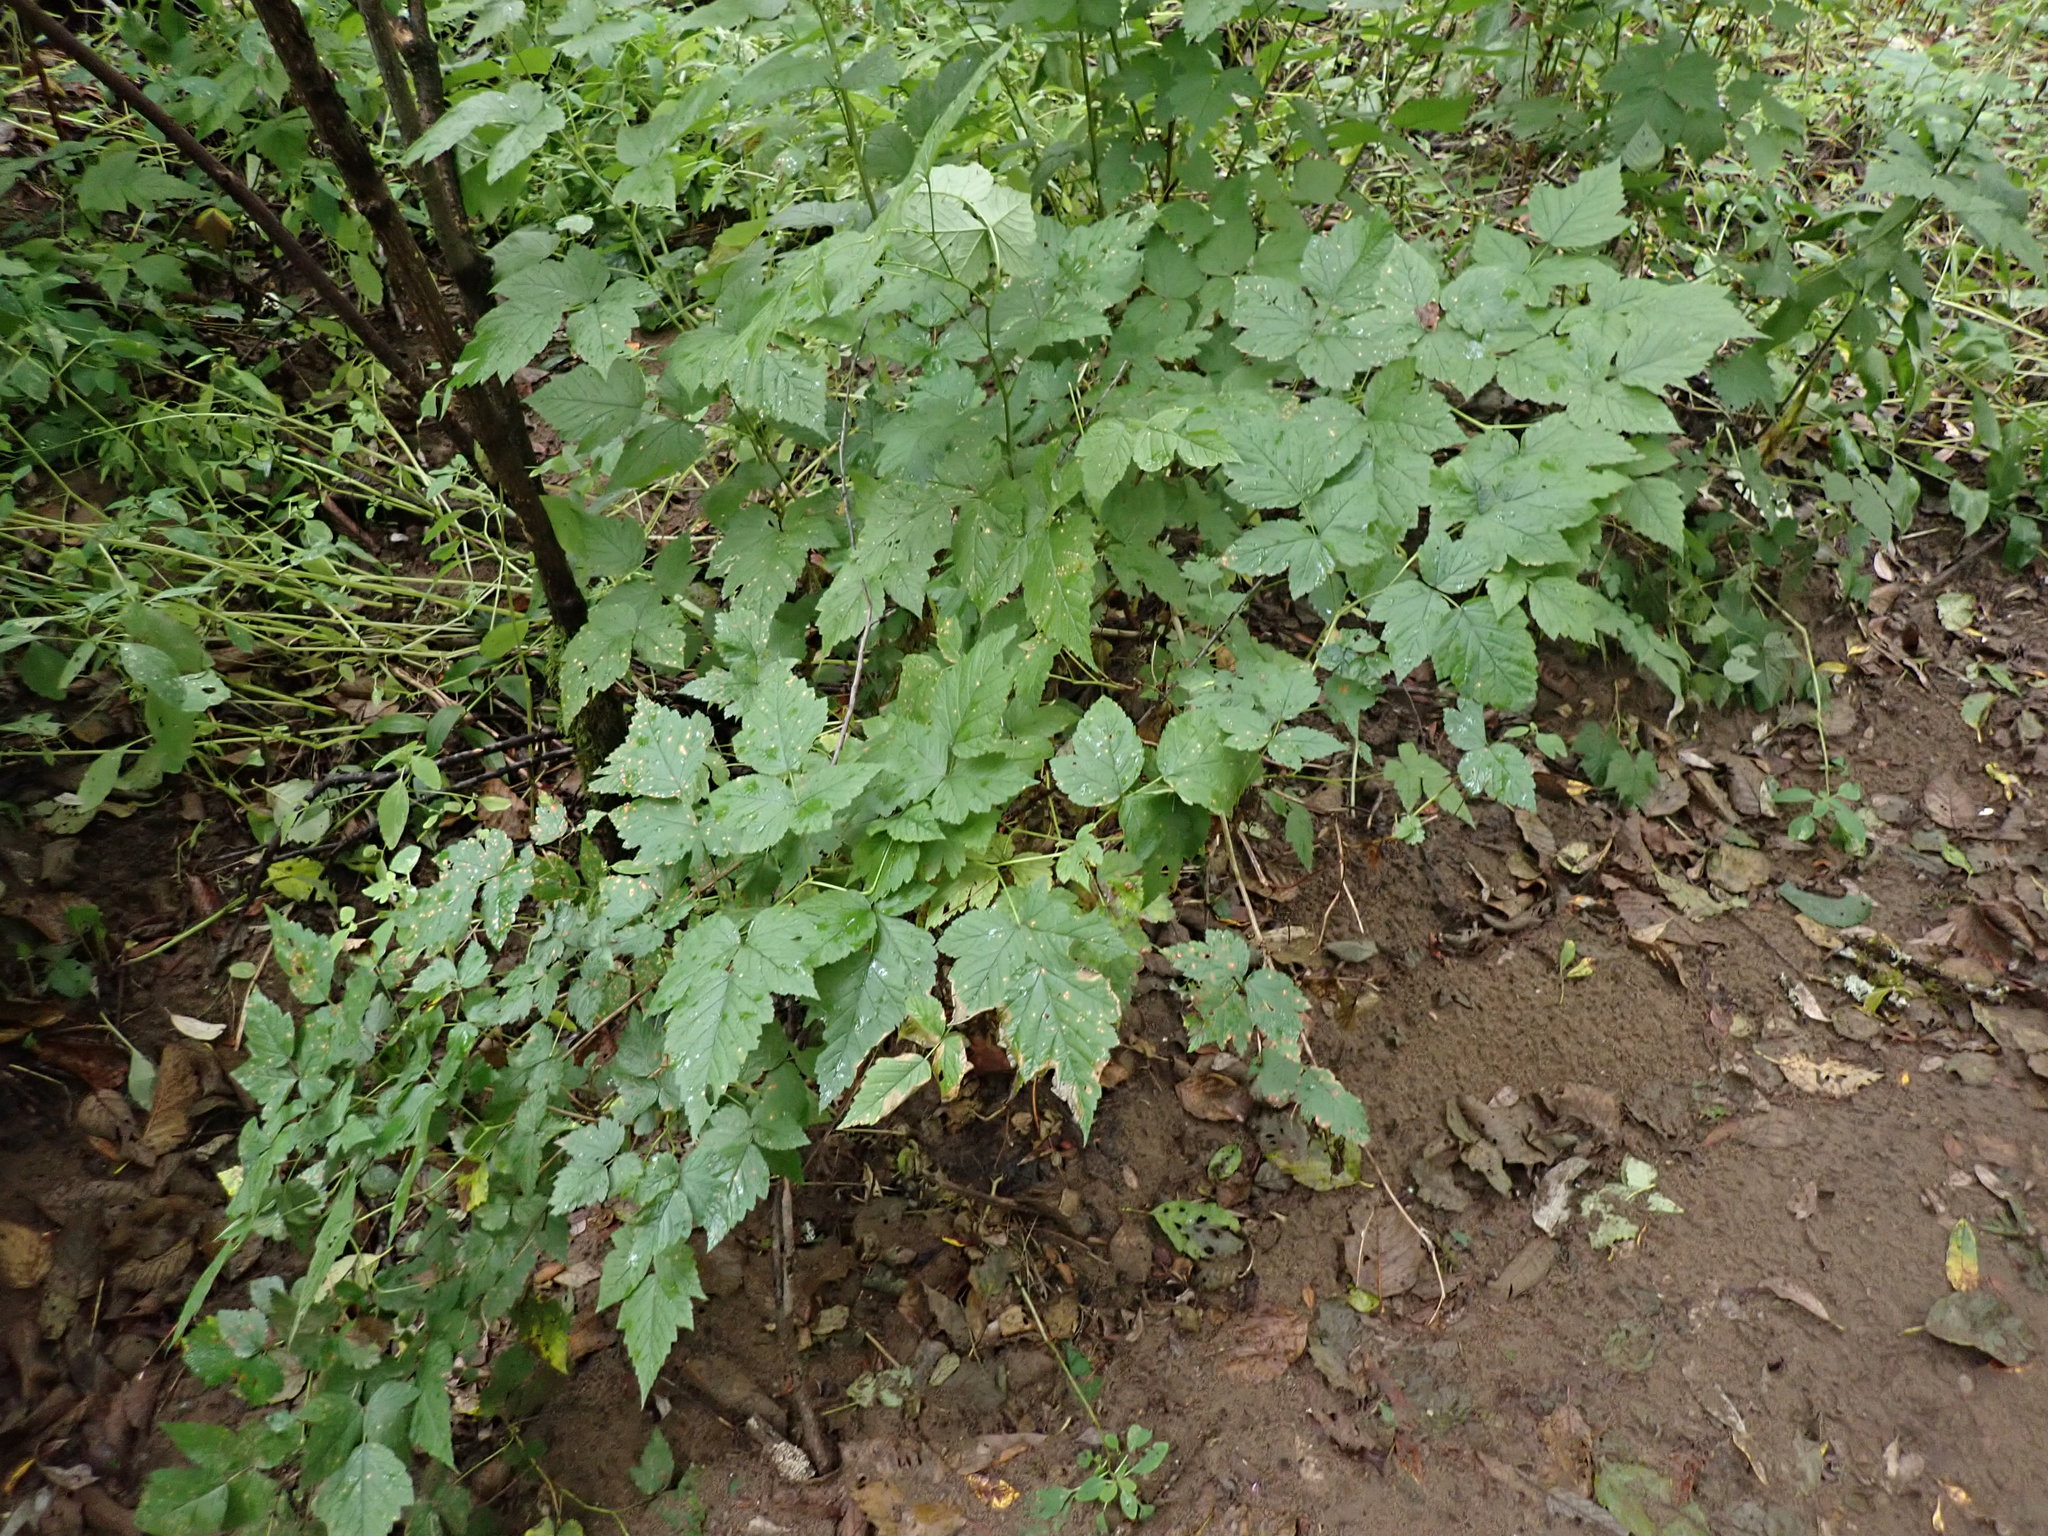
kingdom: Plantae
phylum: Tracheophyta
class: Magnoliopsida
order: Rosales
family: Rosaceae
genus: Rubus
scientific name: Rubus spectabilis
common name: Salmonberry
